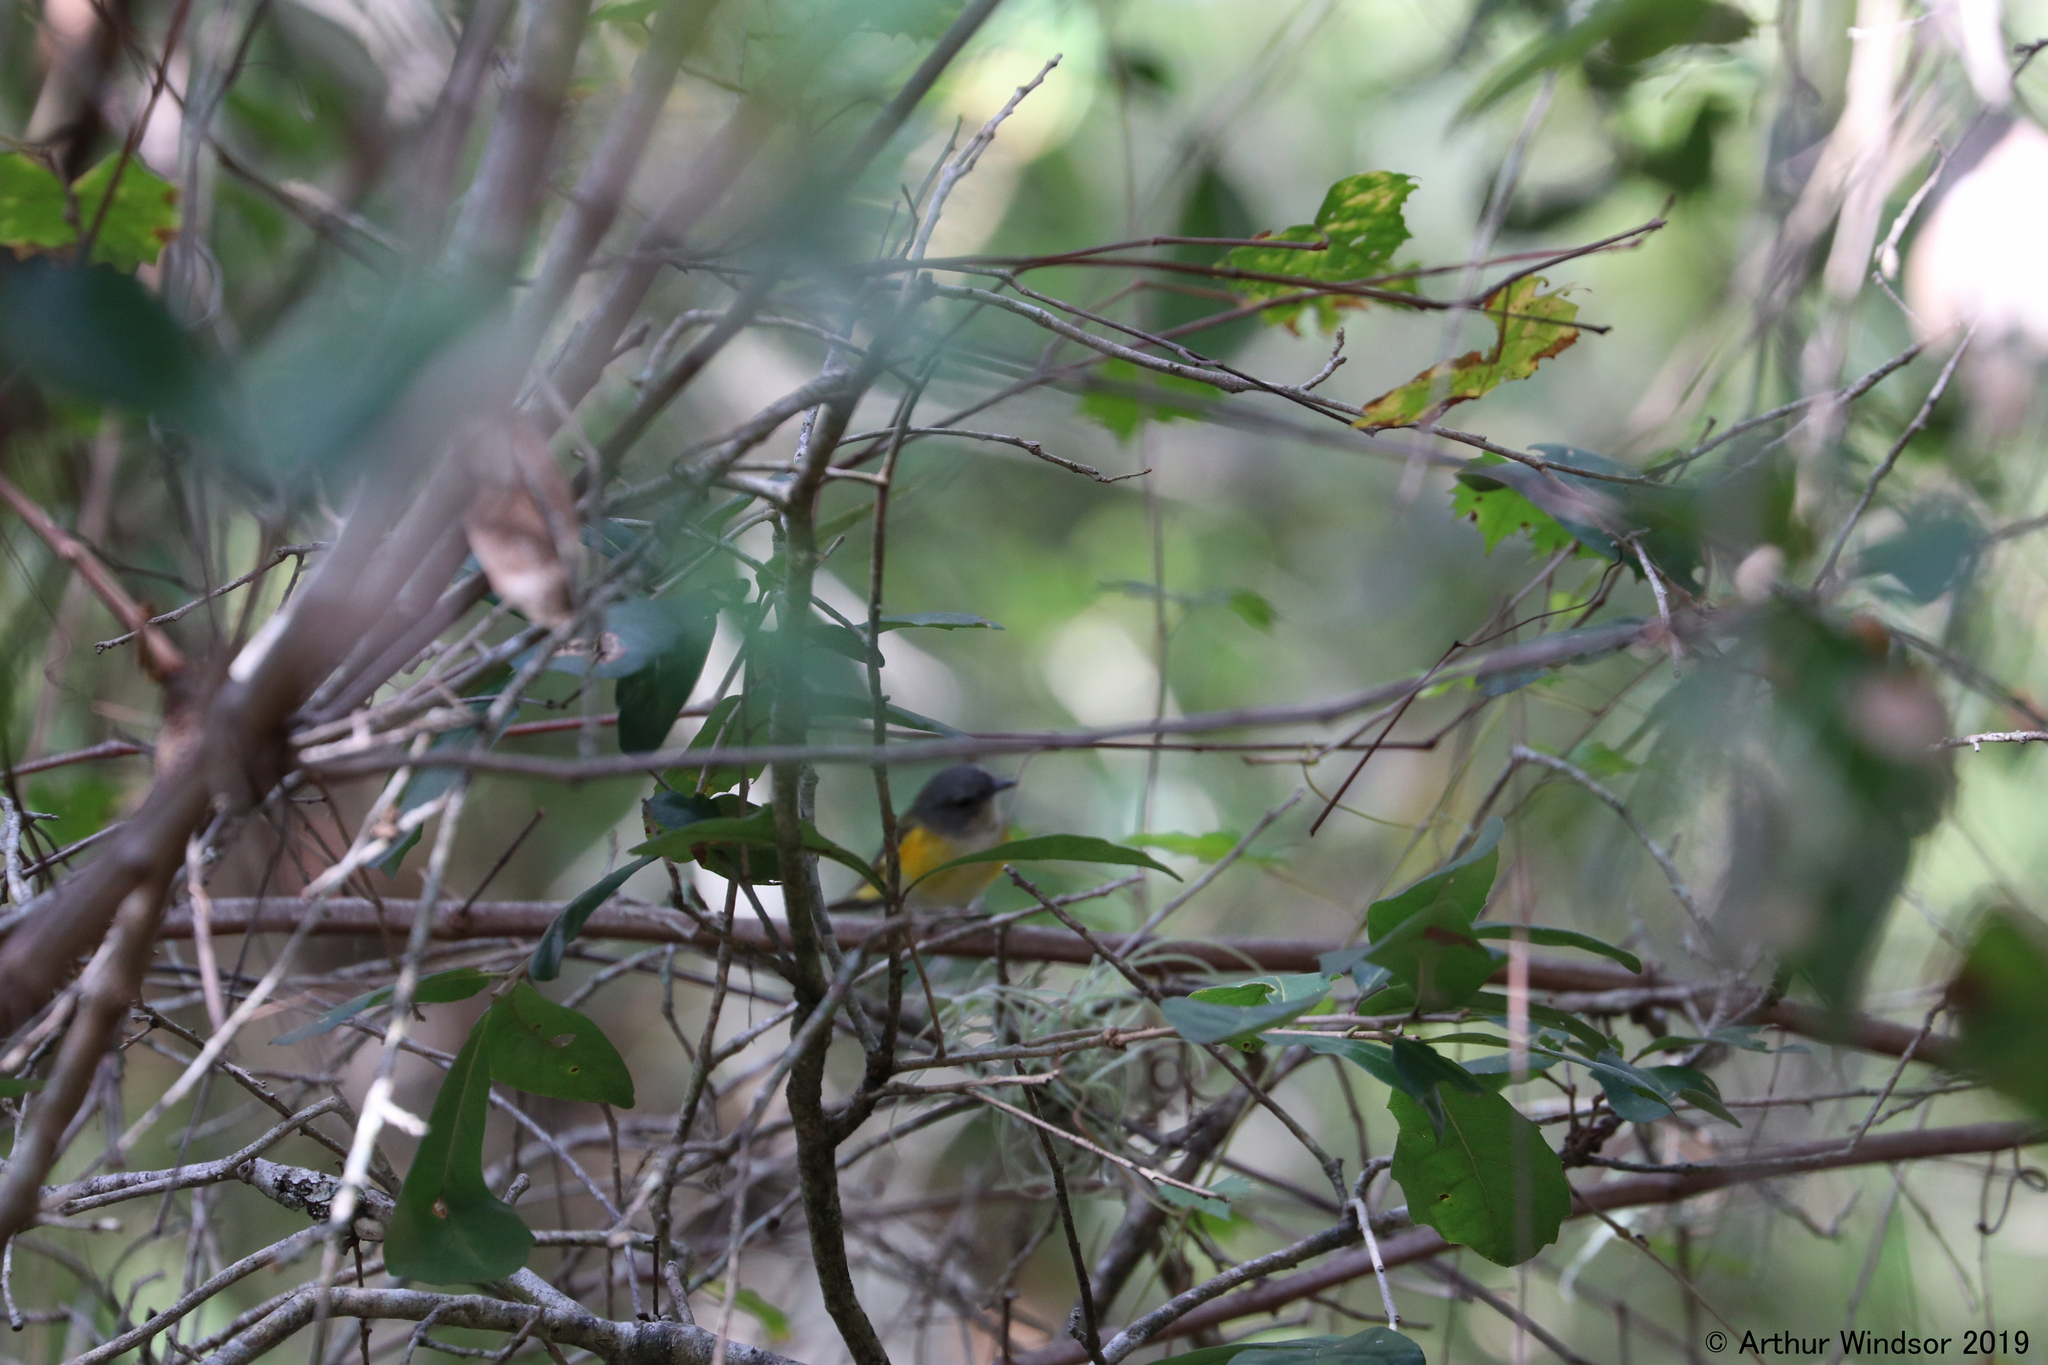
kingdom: Animalia
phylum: Chordata
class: Aves
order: Passeriformes
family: Parulidae
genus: Setophaga
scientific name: Setophaga ruticilla
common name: American redstart
